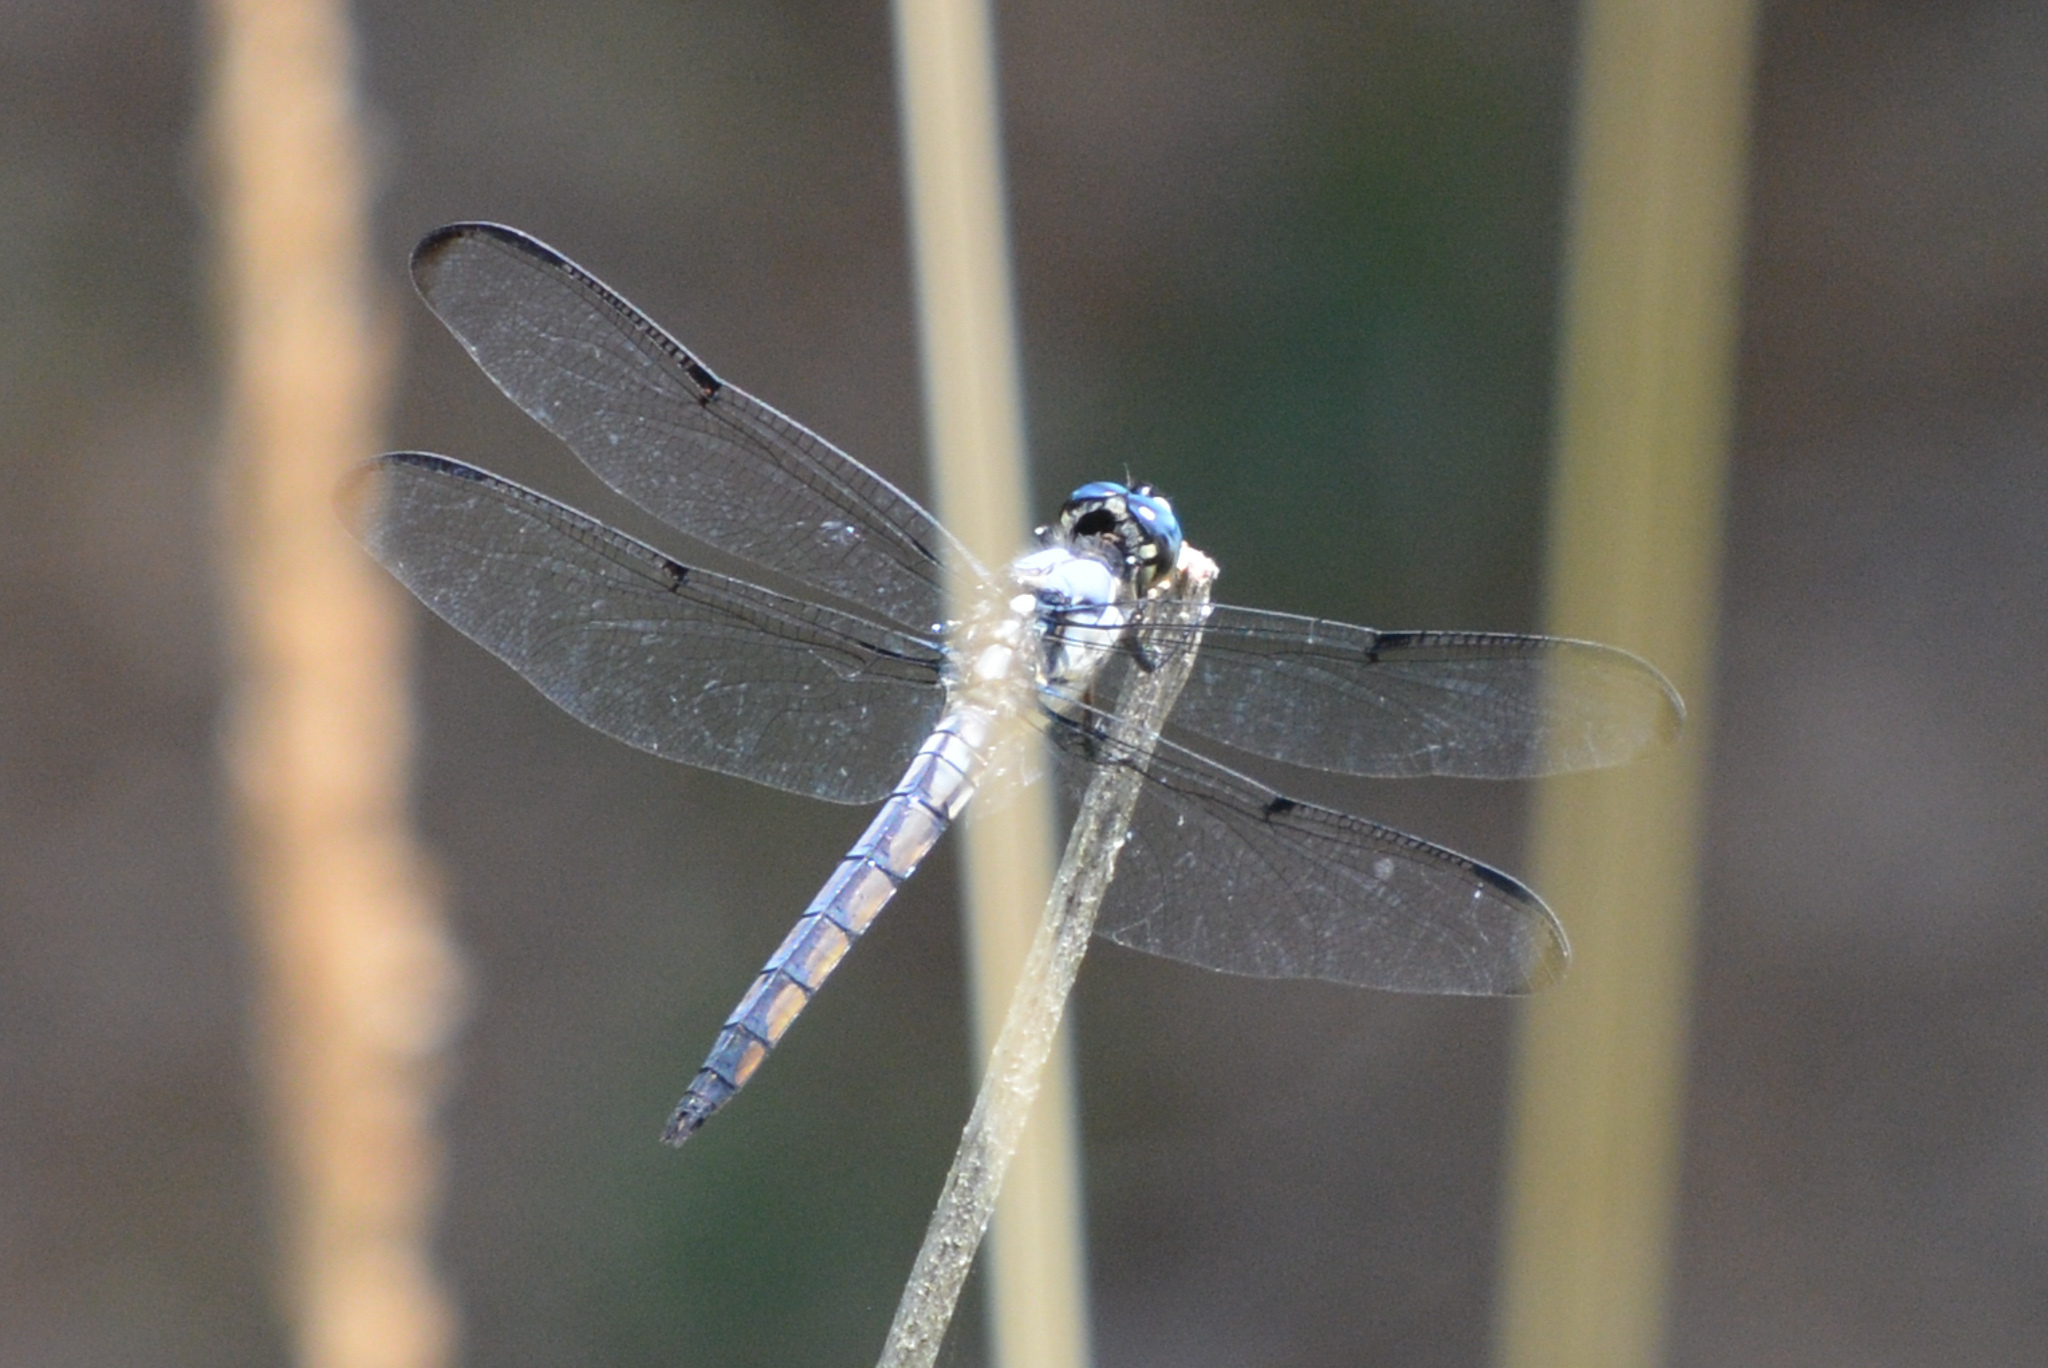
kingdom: Animalia
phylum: Arthropoda
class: Insecta
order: Odonata
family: Libellulidae
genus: Libellula
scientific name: Libellula vibrans
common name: Great blue skimmer
